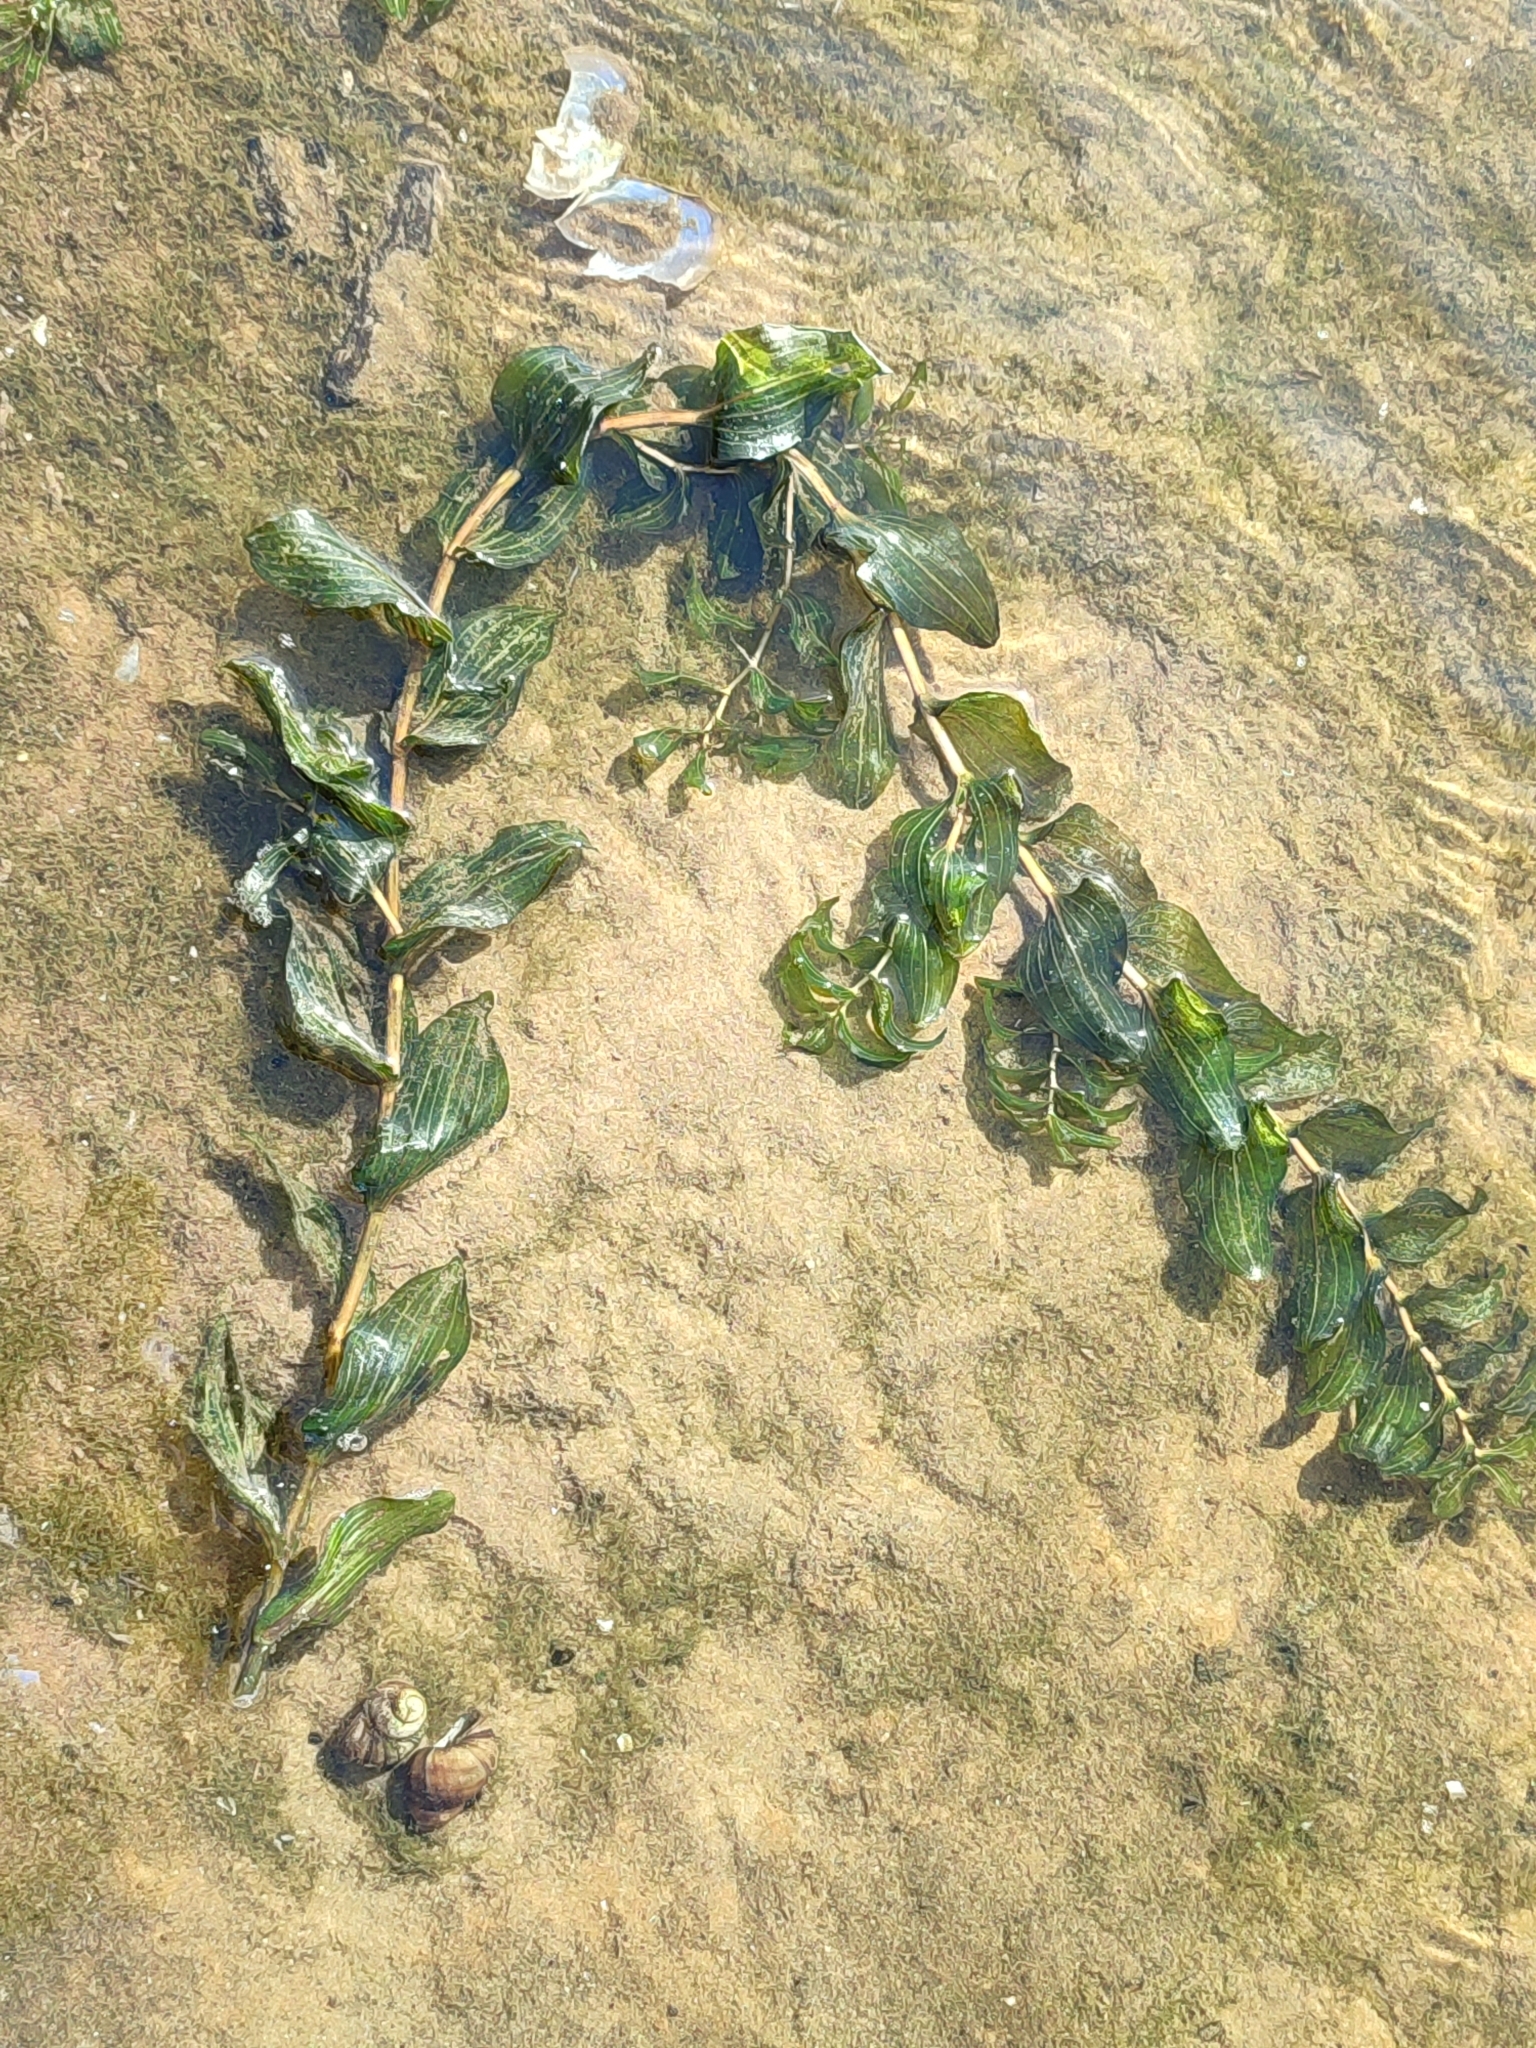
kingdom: Plantae
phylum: Tracheophyta
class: Liliopsida
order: Alismatales
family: Potamogetonaceae
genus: Potamogeton
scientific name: Potamogeton perfoliatus
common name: Perfoliate pondweed
